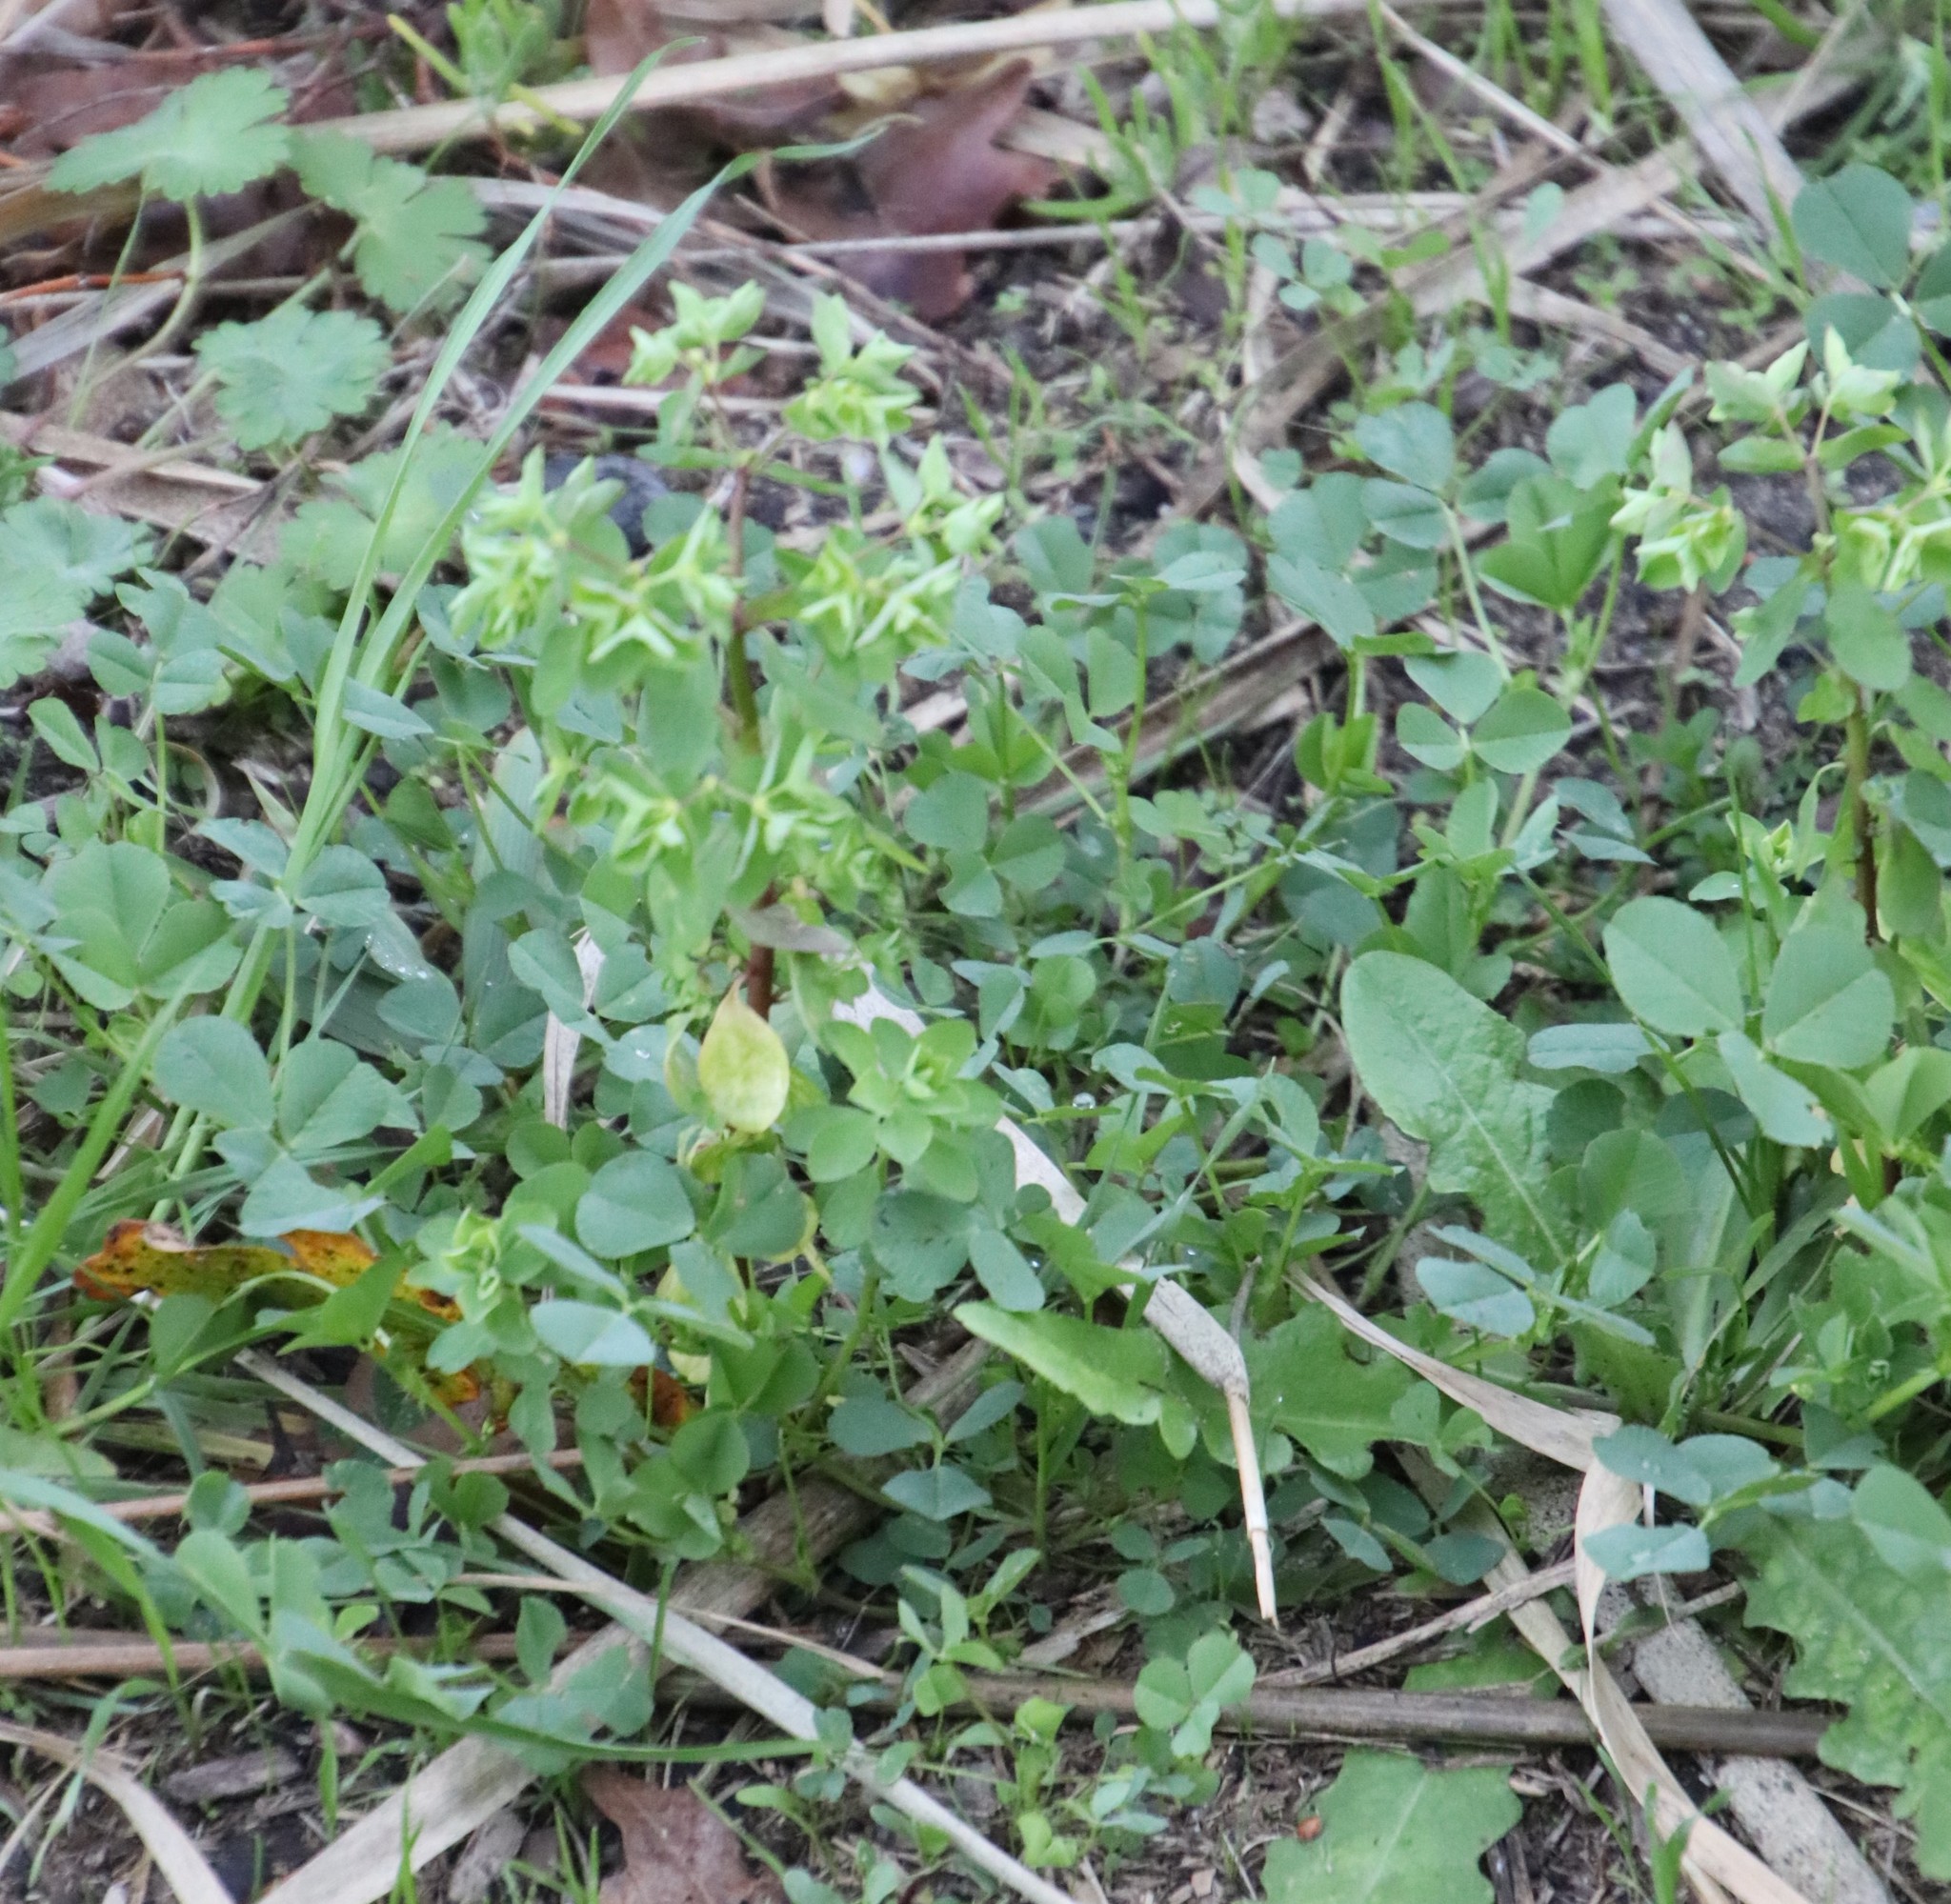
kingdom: Plantae
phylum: Tracheophyta
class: Magnoliopsida
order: Malpighiales
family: Euphorbiaceae
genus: Euphorbia
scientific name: Euphorbia peplus
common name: Petty spurge
